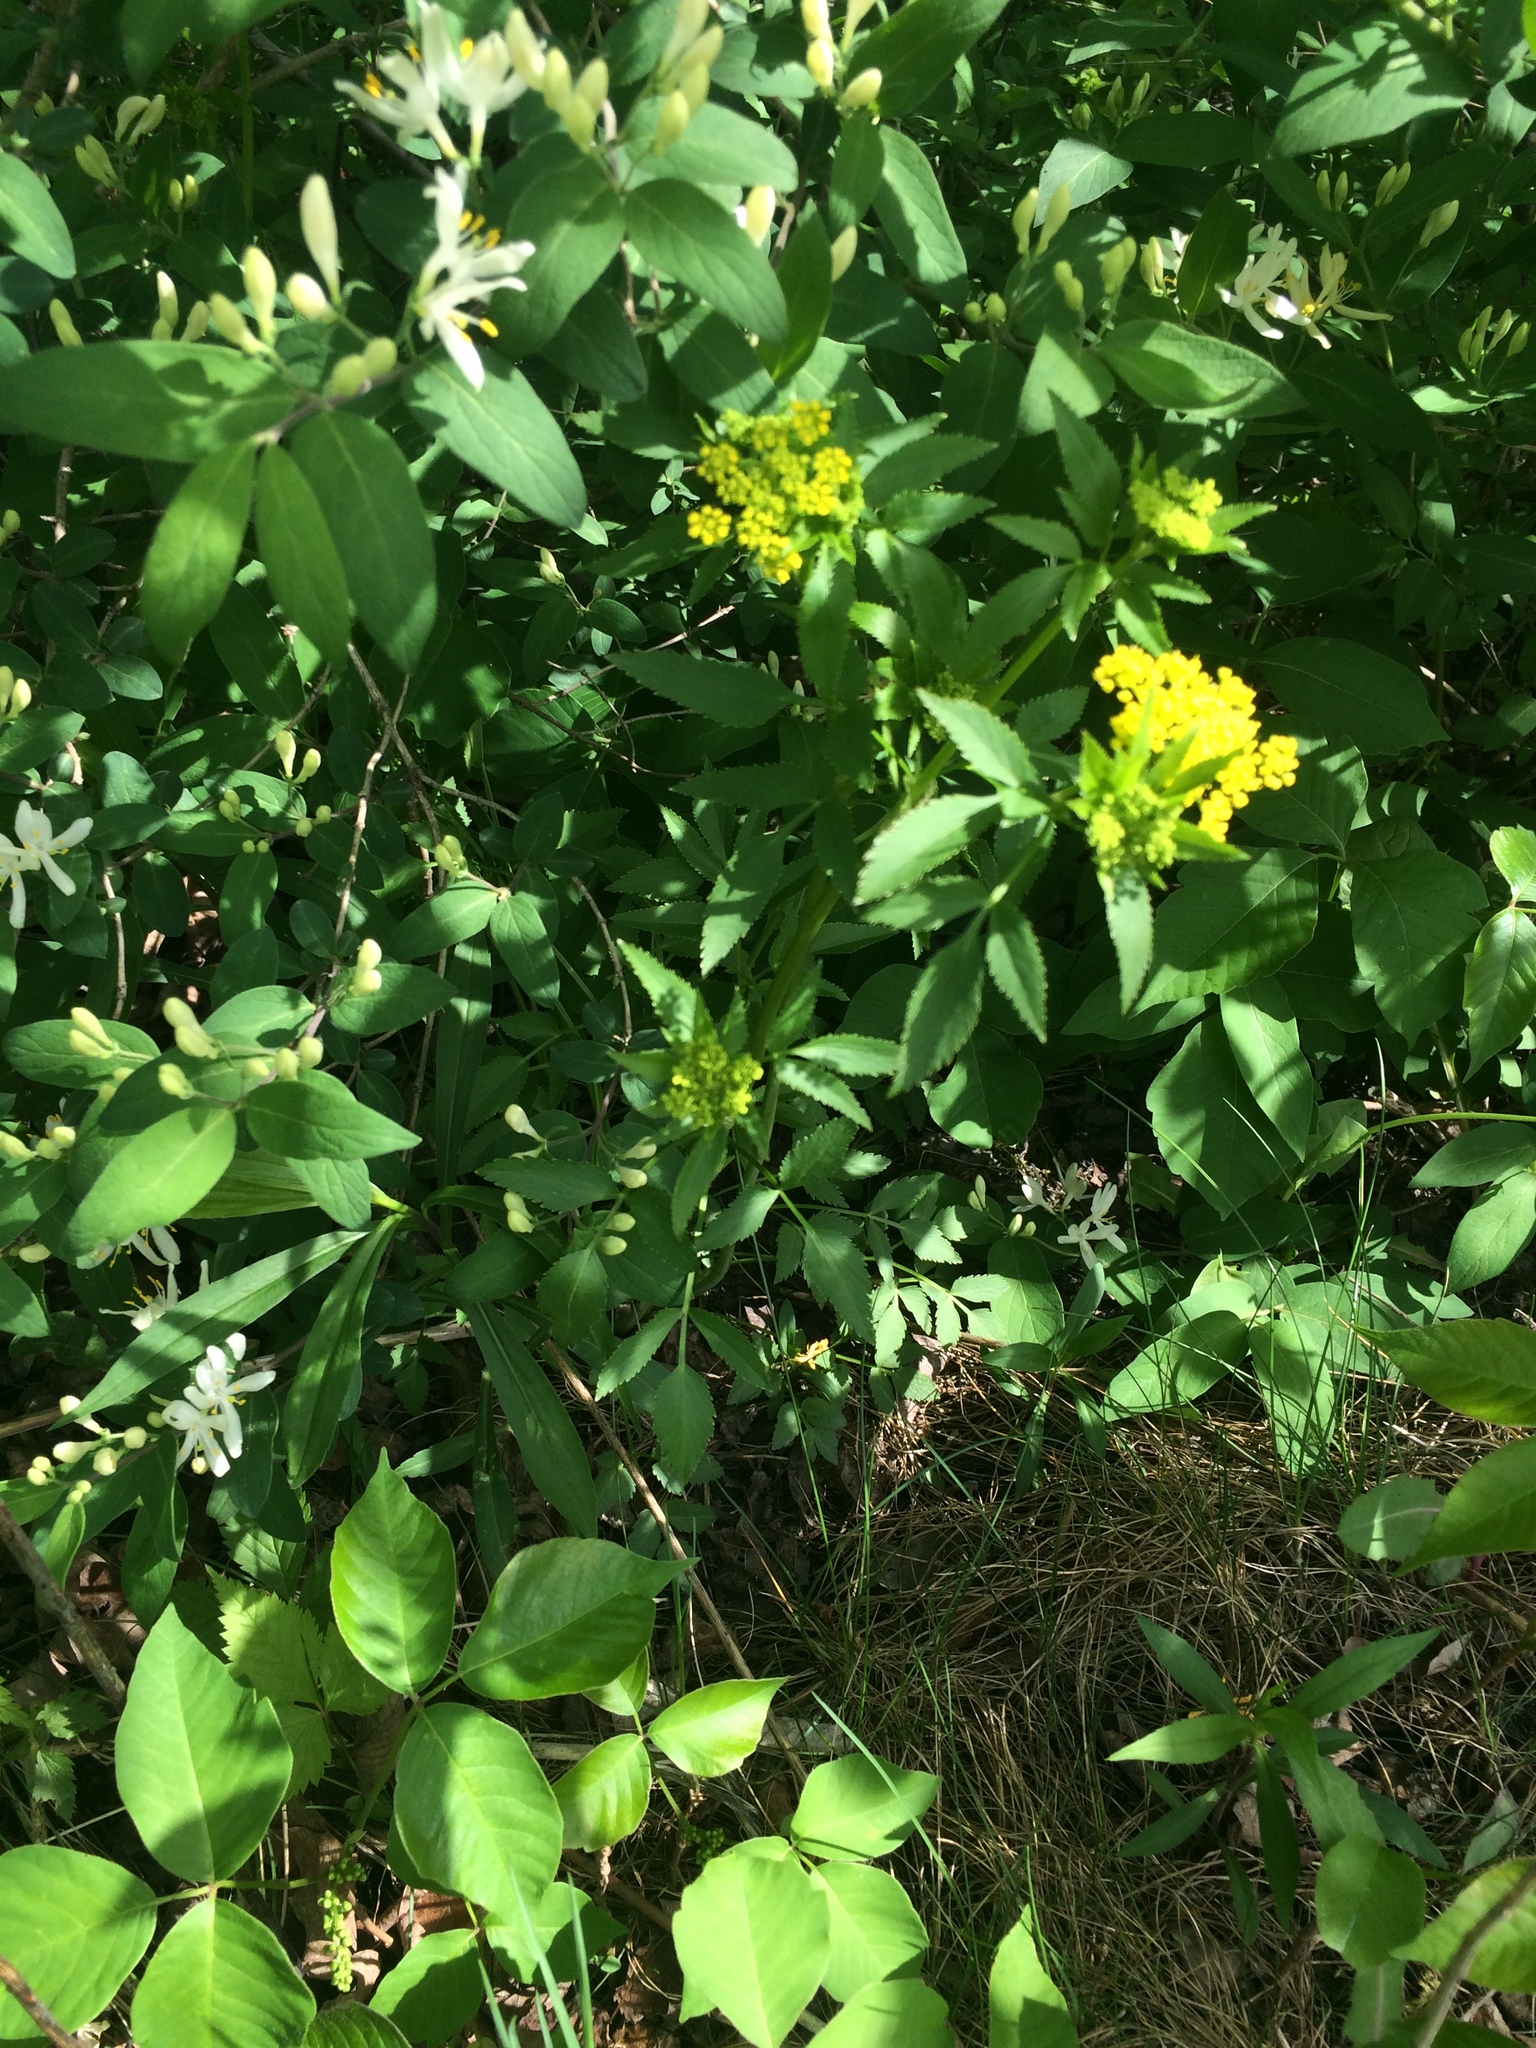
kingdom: Plantae
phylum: Tracheophyta
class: Magnoliopsida
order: Apiales
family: Apiaceae
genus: Zizia
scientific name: Zizia aurea
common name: Golden alexanders
